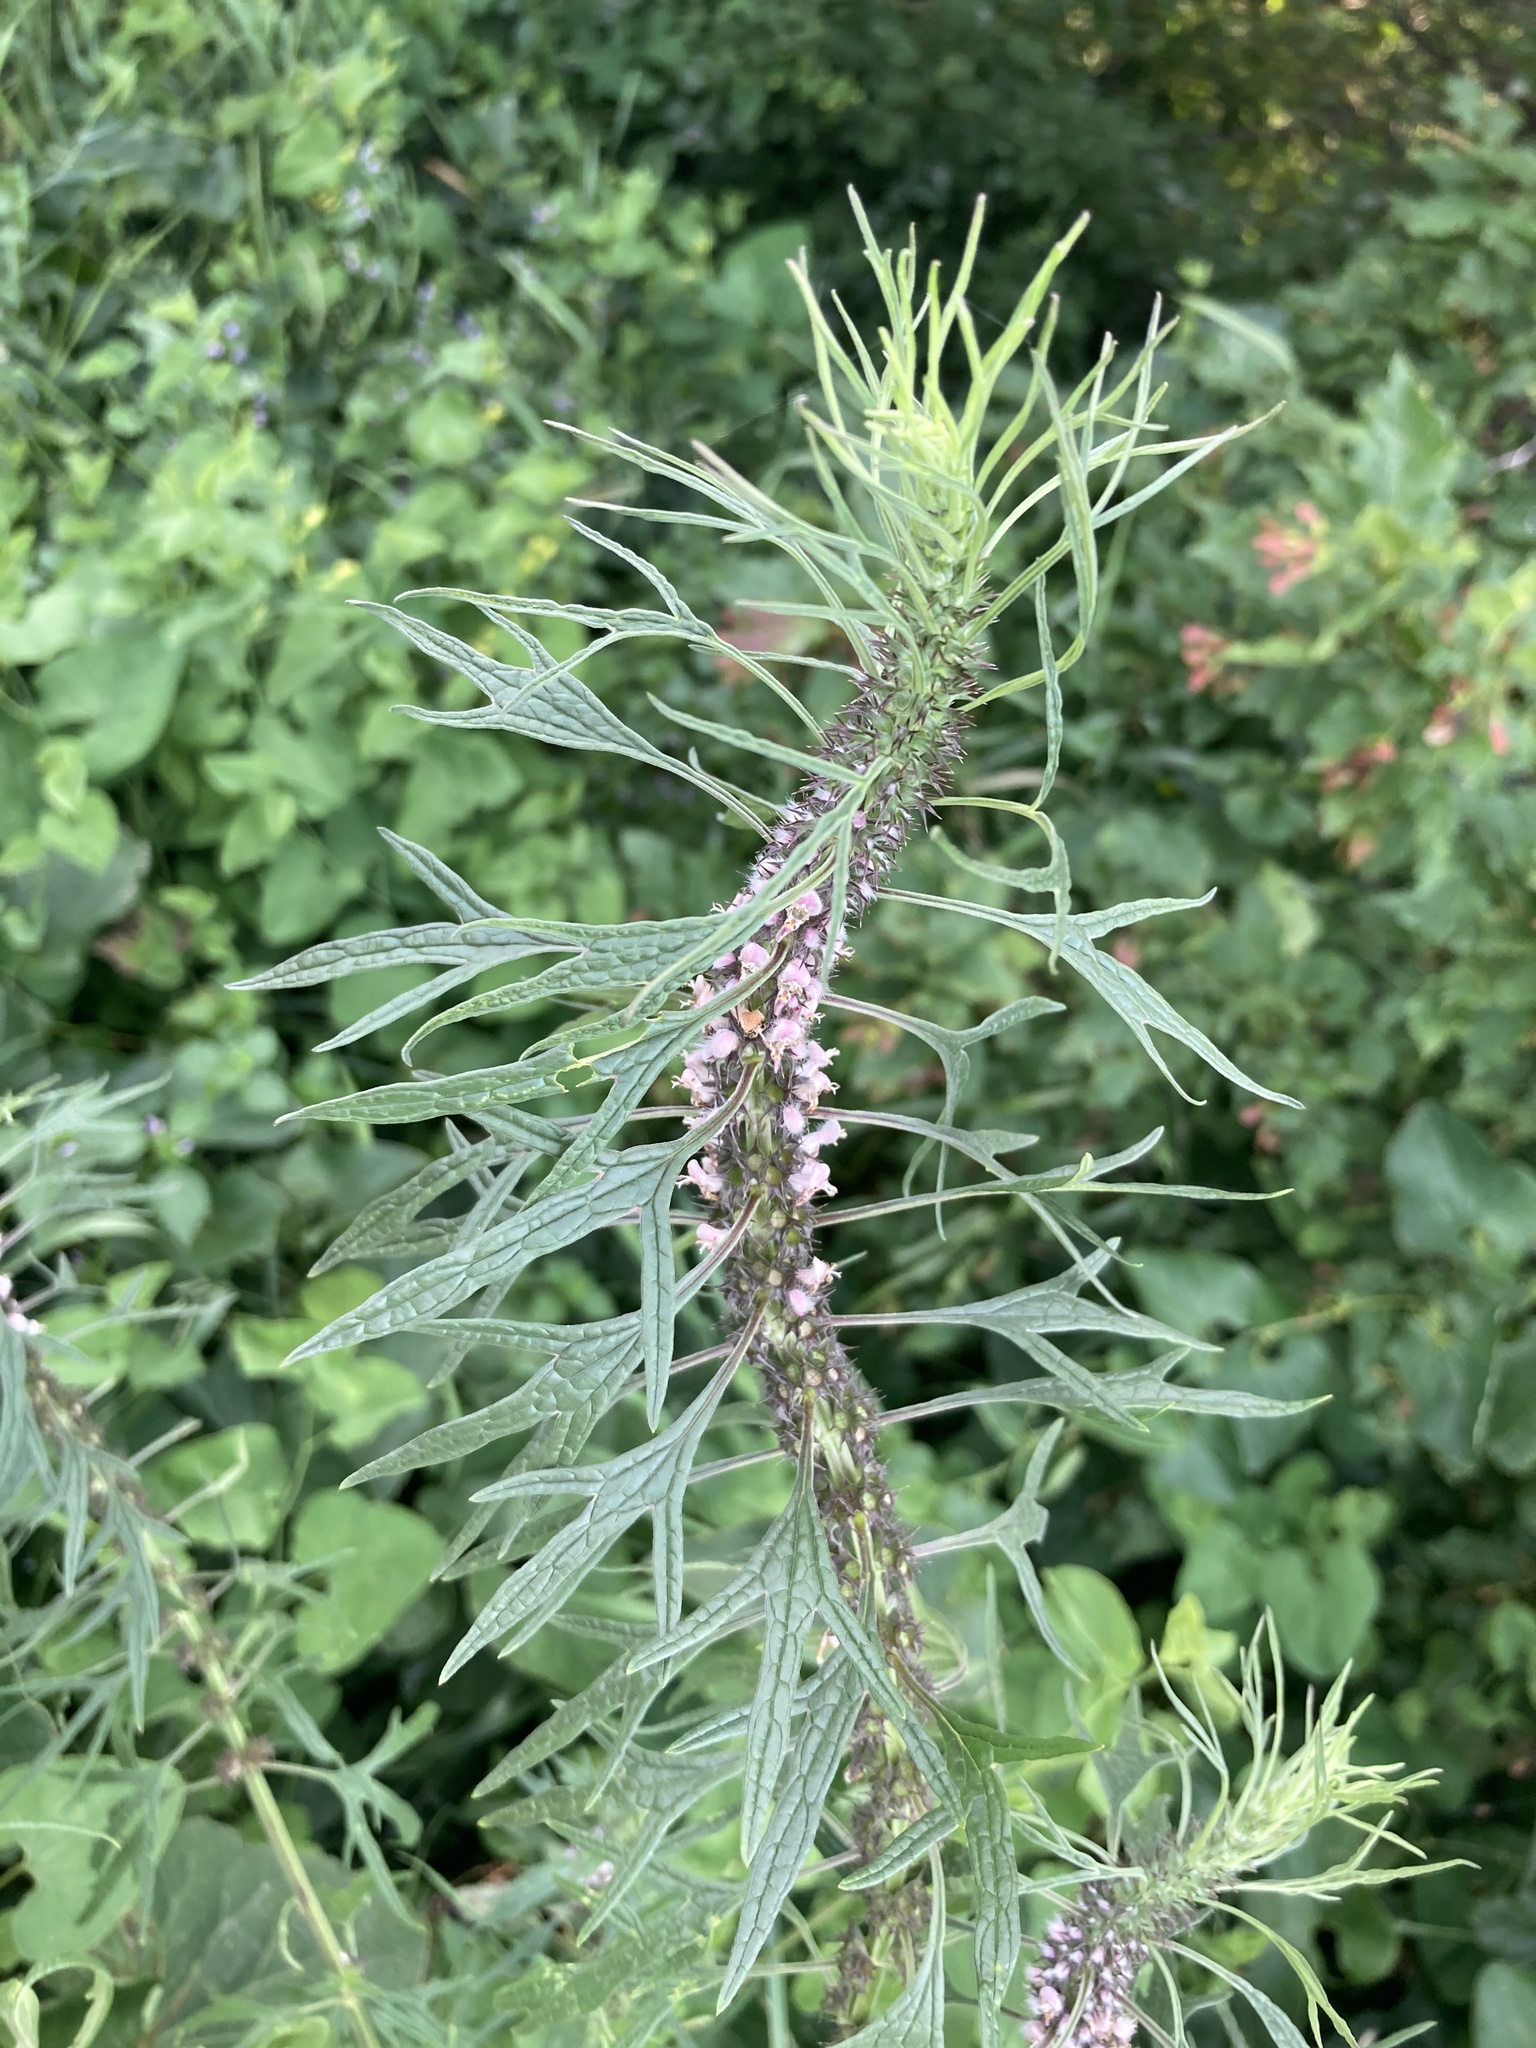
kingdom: Plantae
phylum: Tracheophyta
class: Magnoliopsida
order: Lamiales
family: Lamiaceae
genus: Leonurus
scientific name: Leonurus glaucescens
